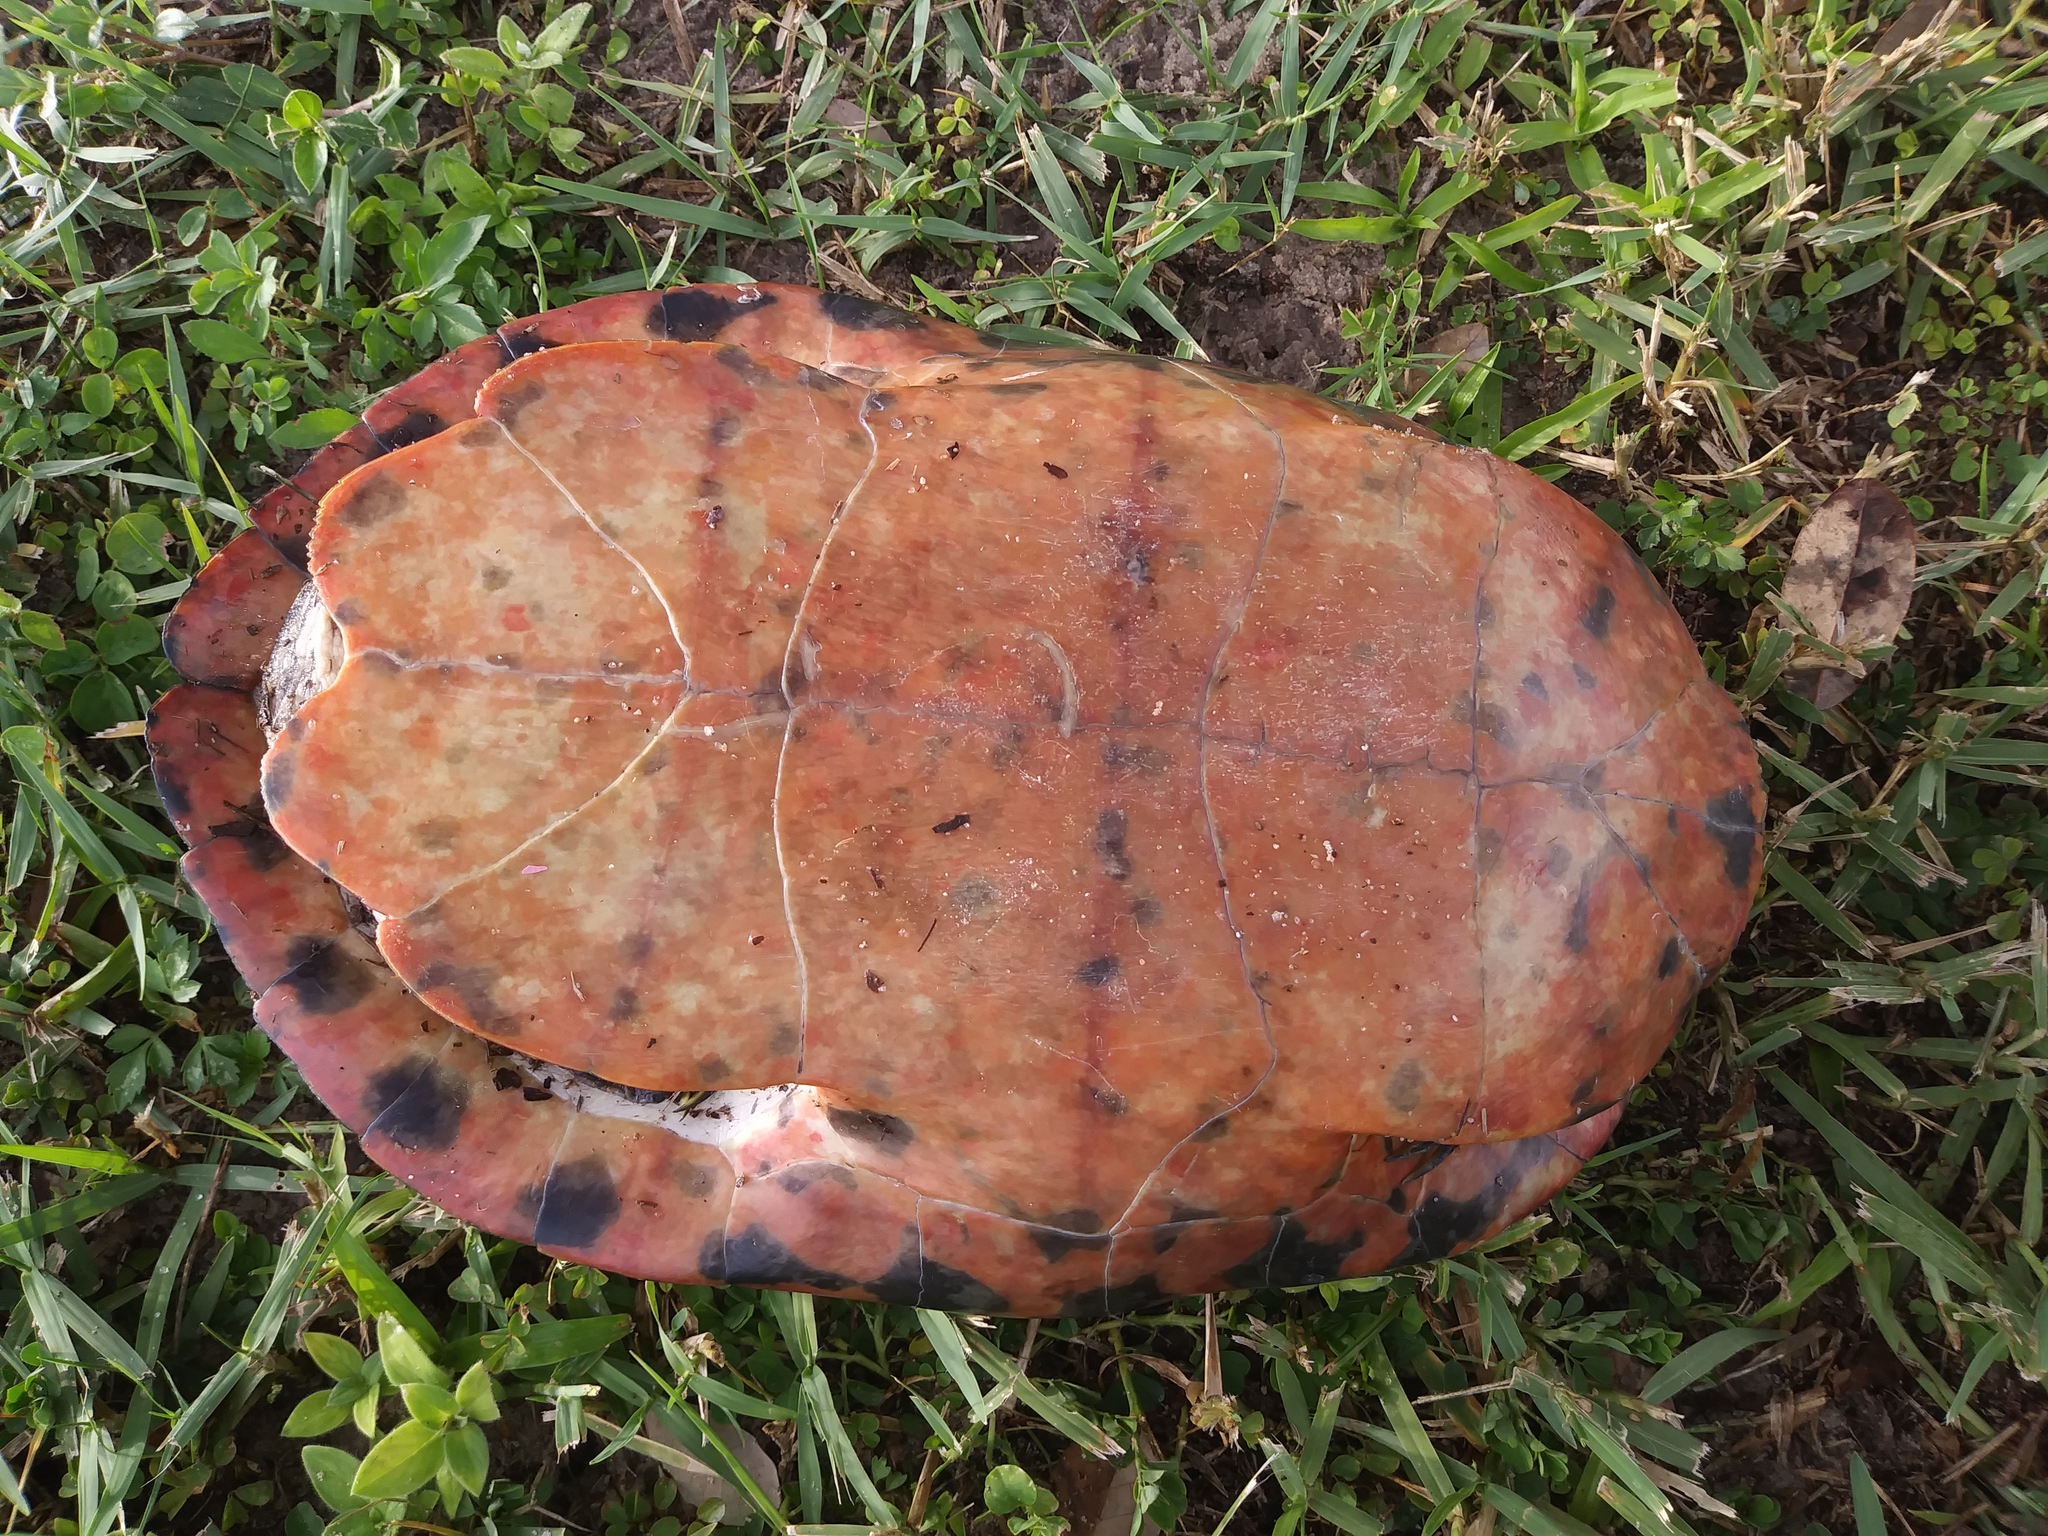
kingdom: Animalia
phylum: Chordata
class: Testudines
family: Emydidae
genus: Pseudemys
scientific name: Pseudemys nelsoni
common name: Florida red-bellied turtle
